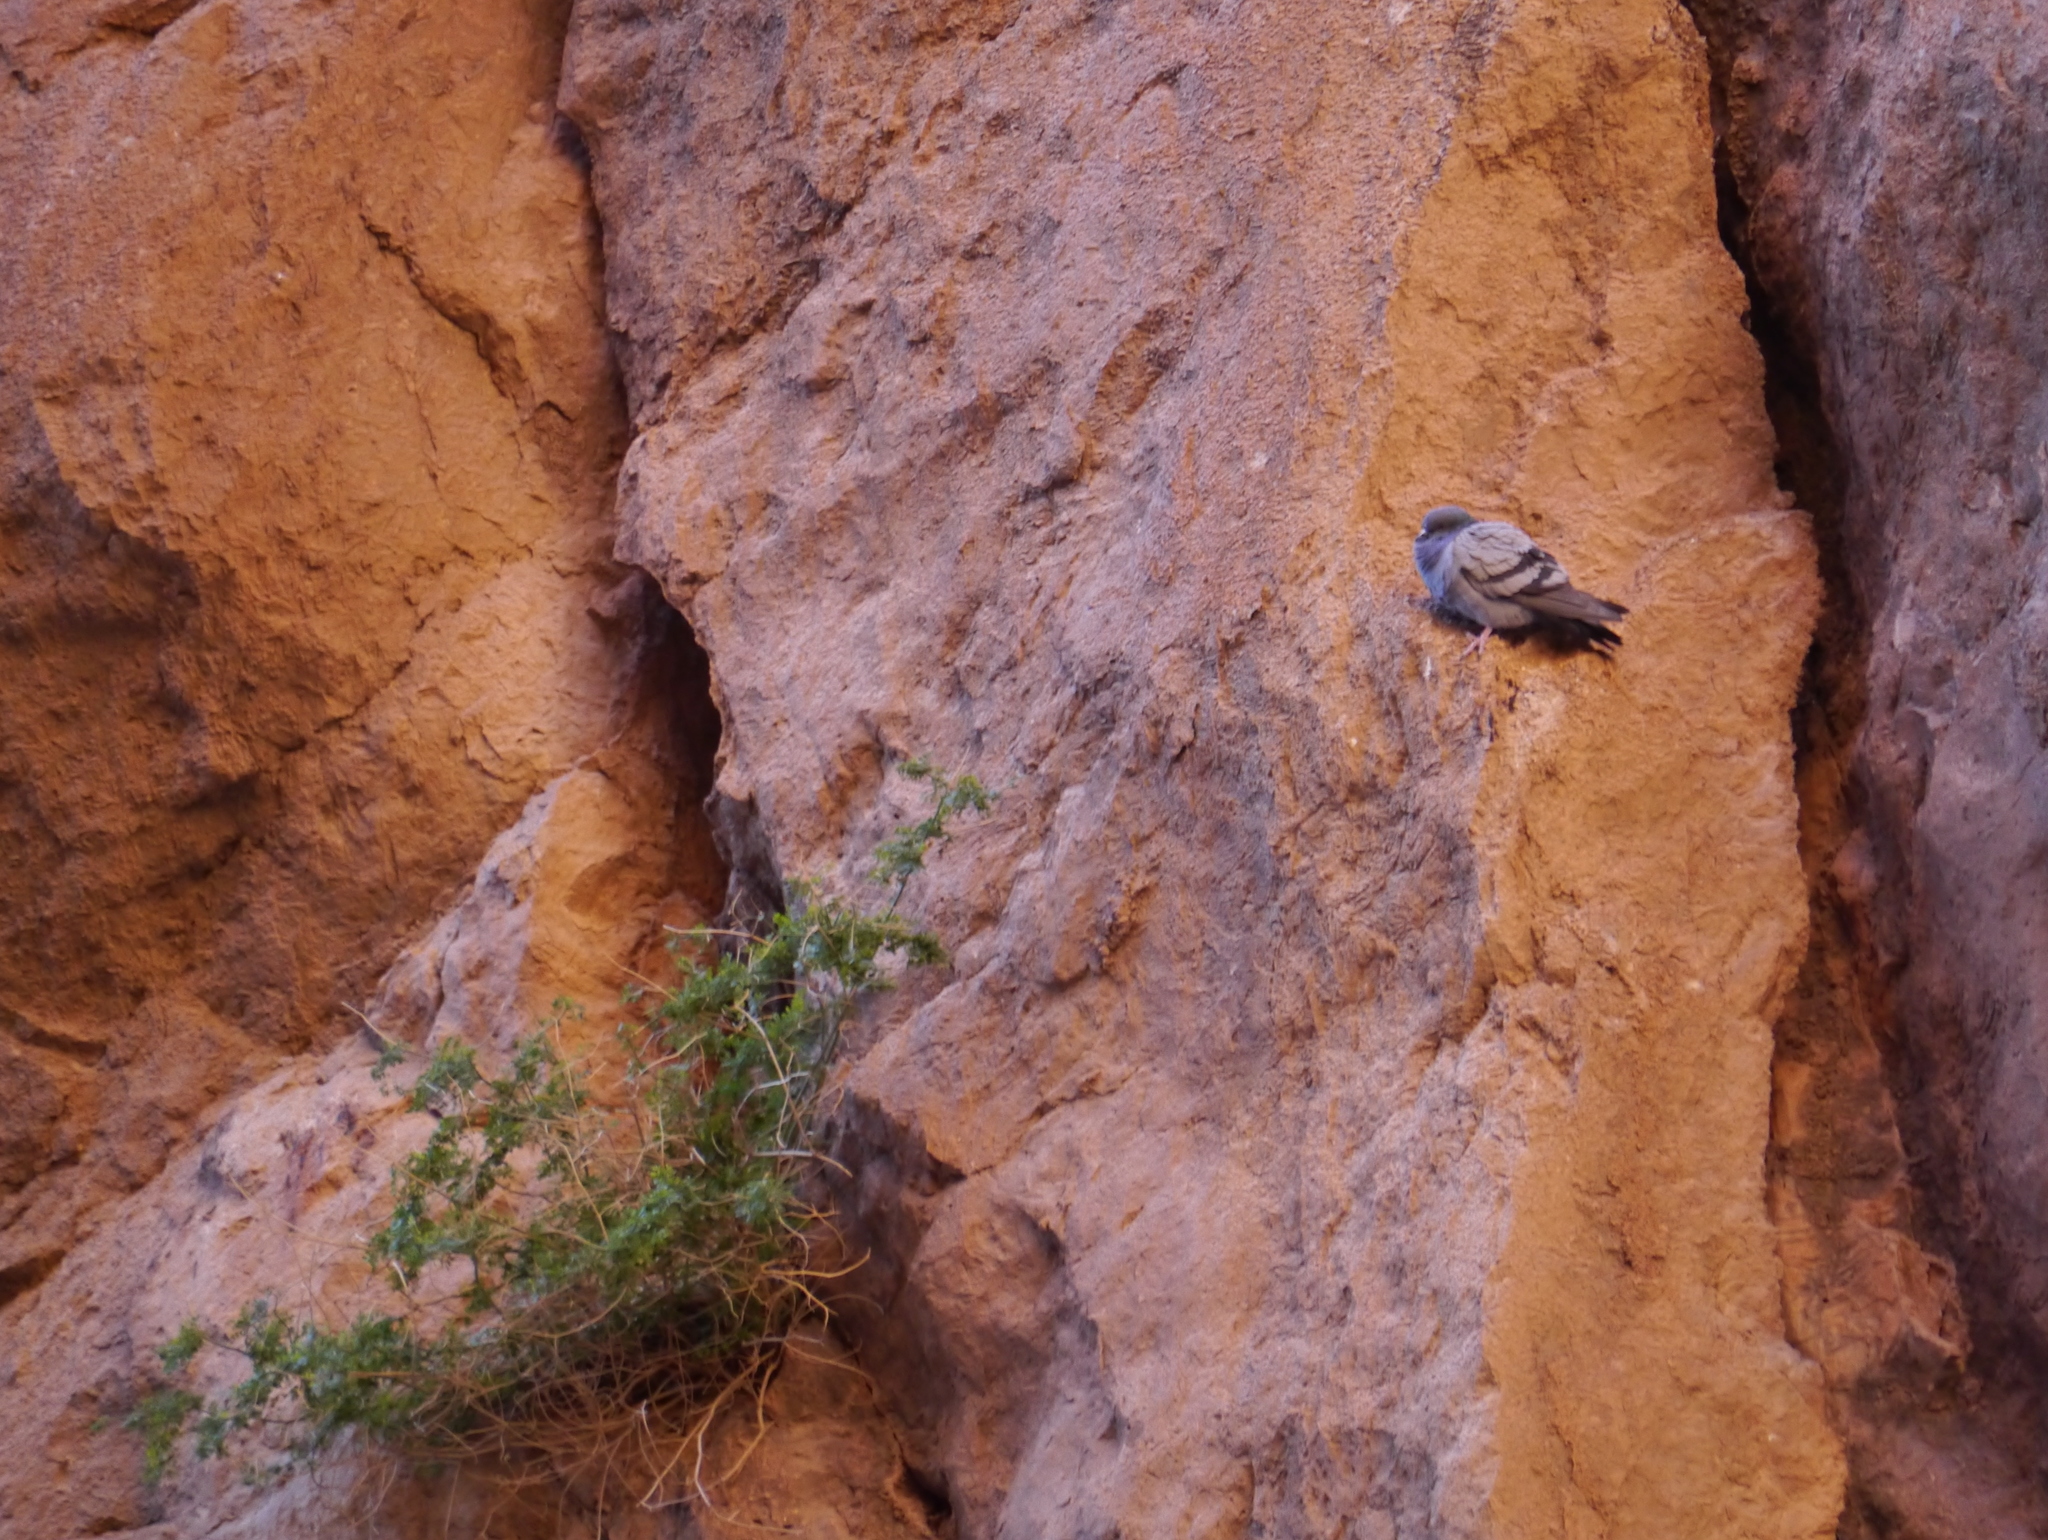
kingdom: Animalia
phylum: Chordata
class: Aves
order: Columbiformes
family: Columbidae
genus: Columba
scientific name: Columba livia
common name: Rock pigeon
